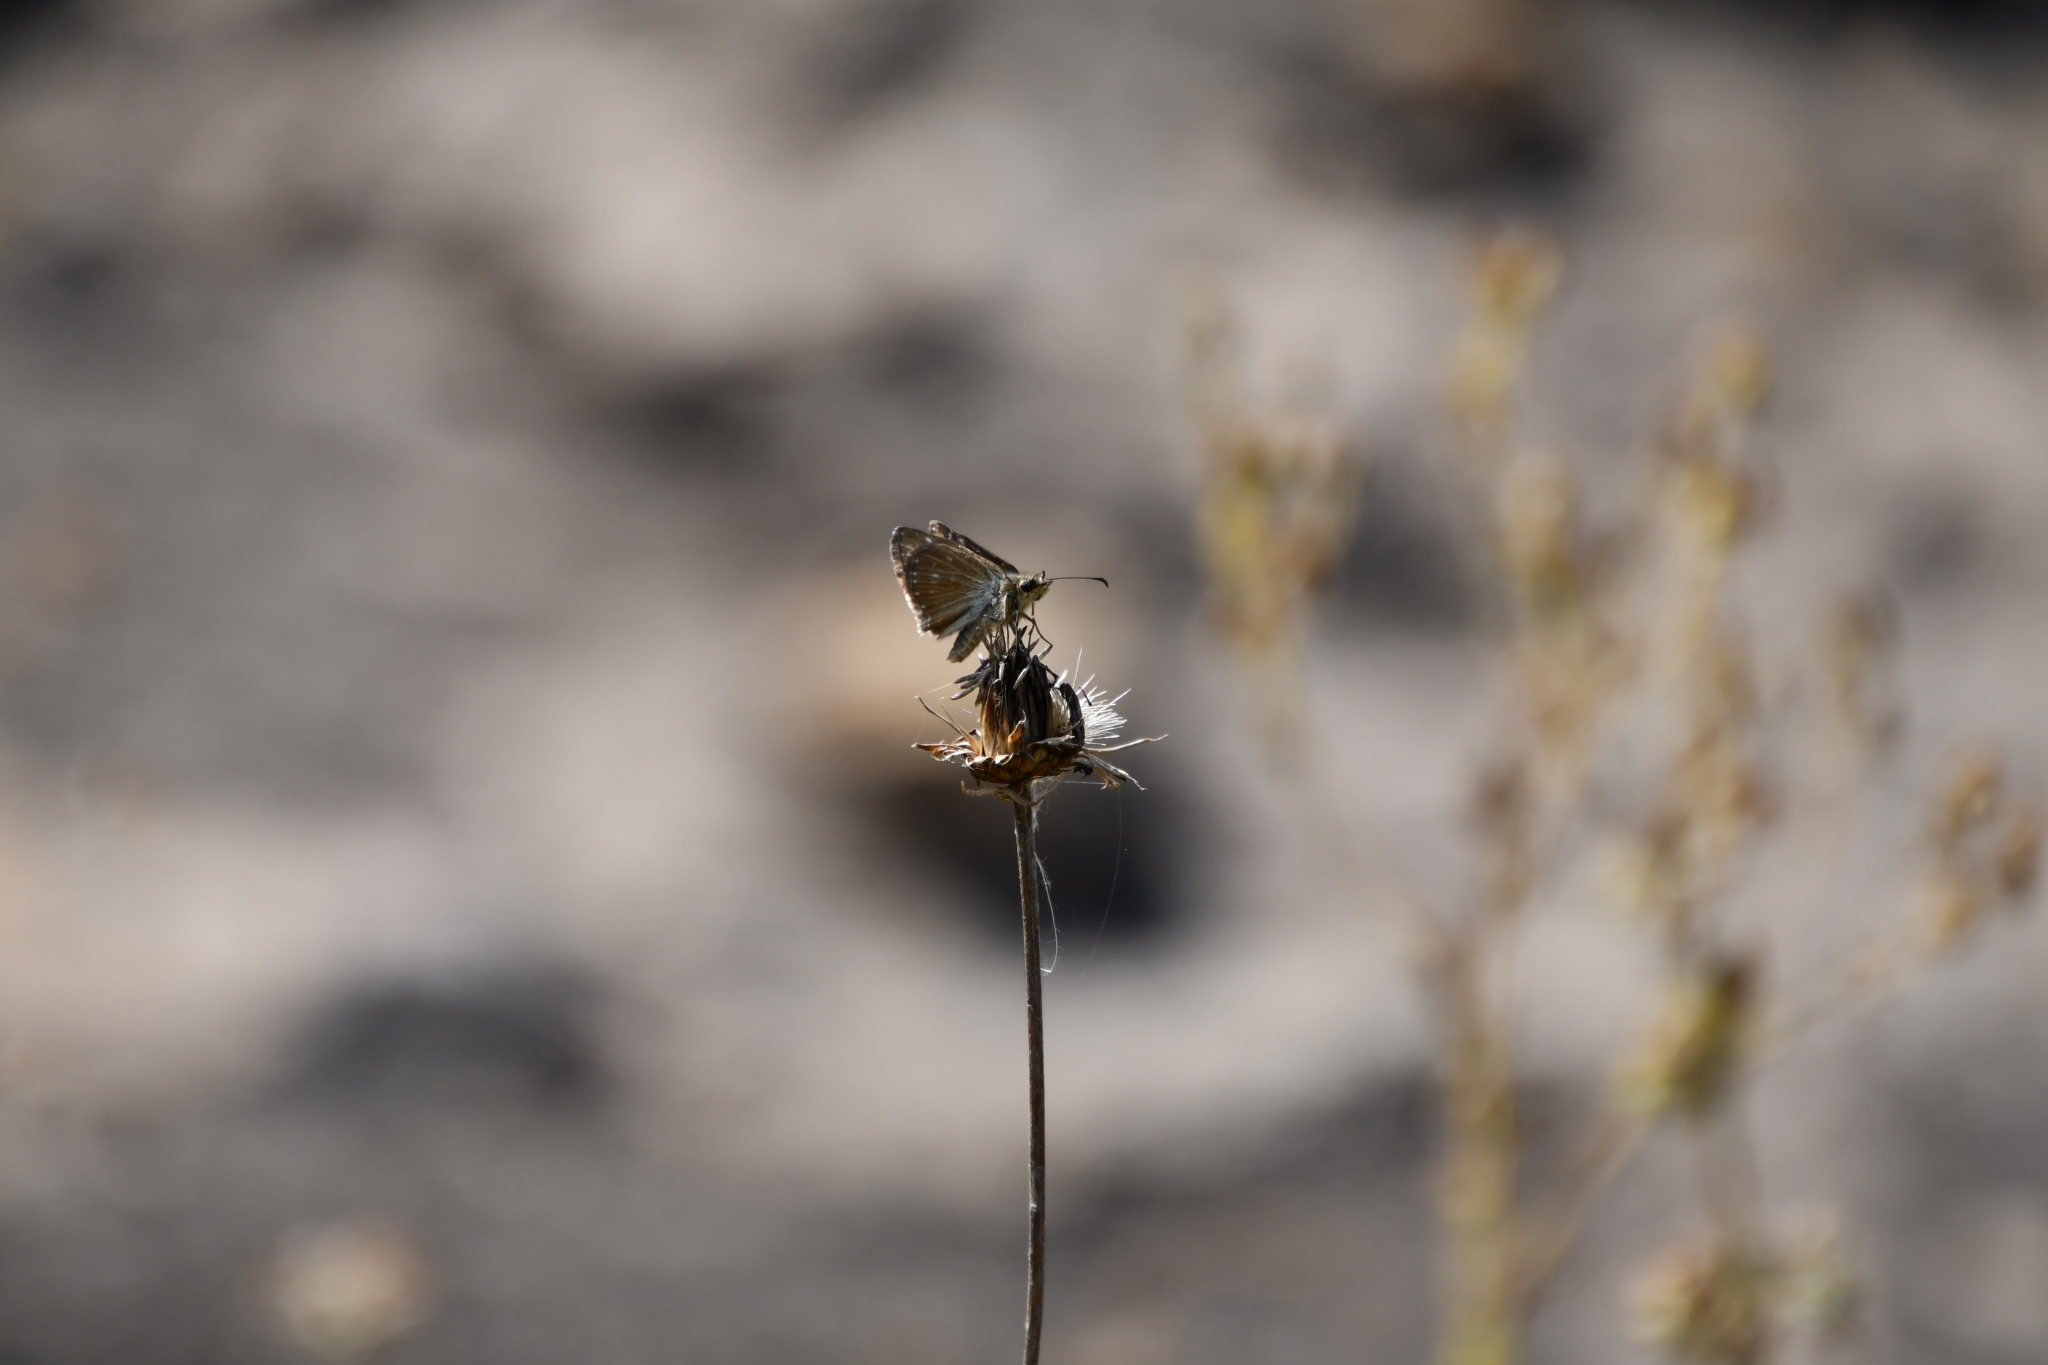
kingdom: Animalia
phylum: Arthropoda
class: Insecta
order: Lepidoptera
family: Hesperiidae
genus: Erynnis
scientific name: Erynnis tages
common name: Dingy skipper
